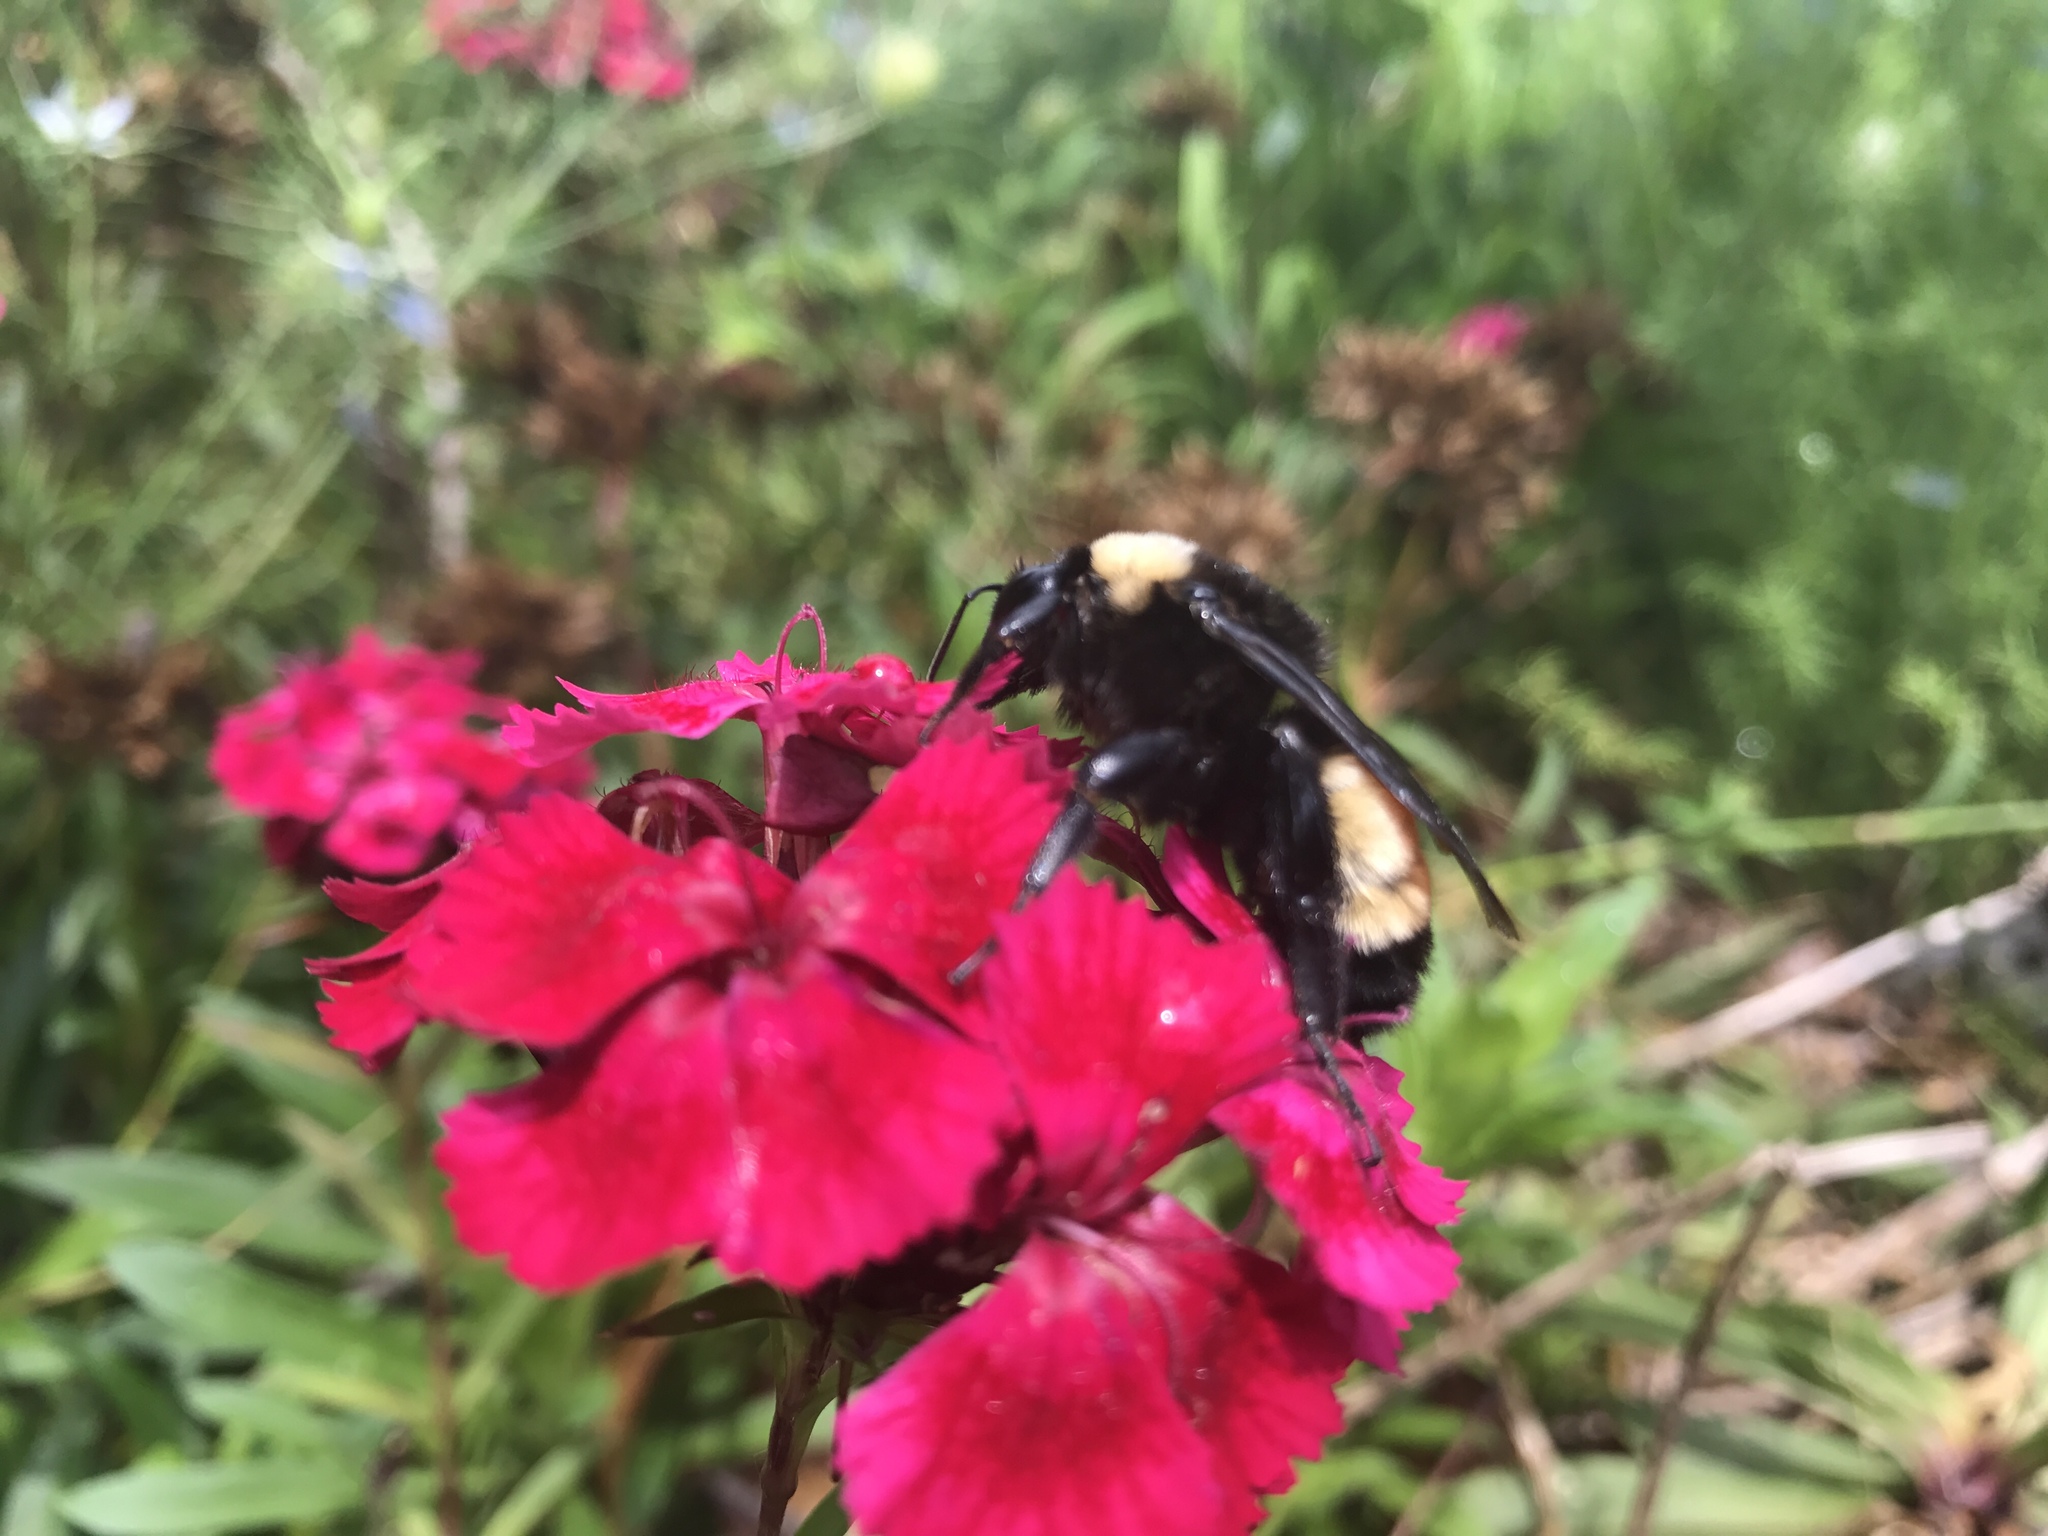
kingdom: Animalia
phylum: Arthropoda
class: Insecta
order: Hymenoptera
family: Apidae
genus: Bombus
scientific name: Bombus pensylvanicus
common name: Bumble bee
